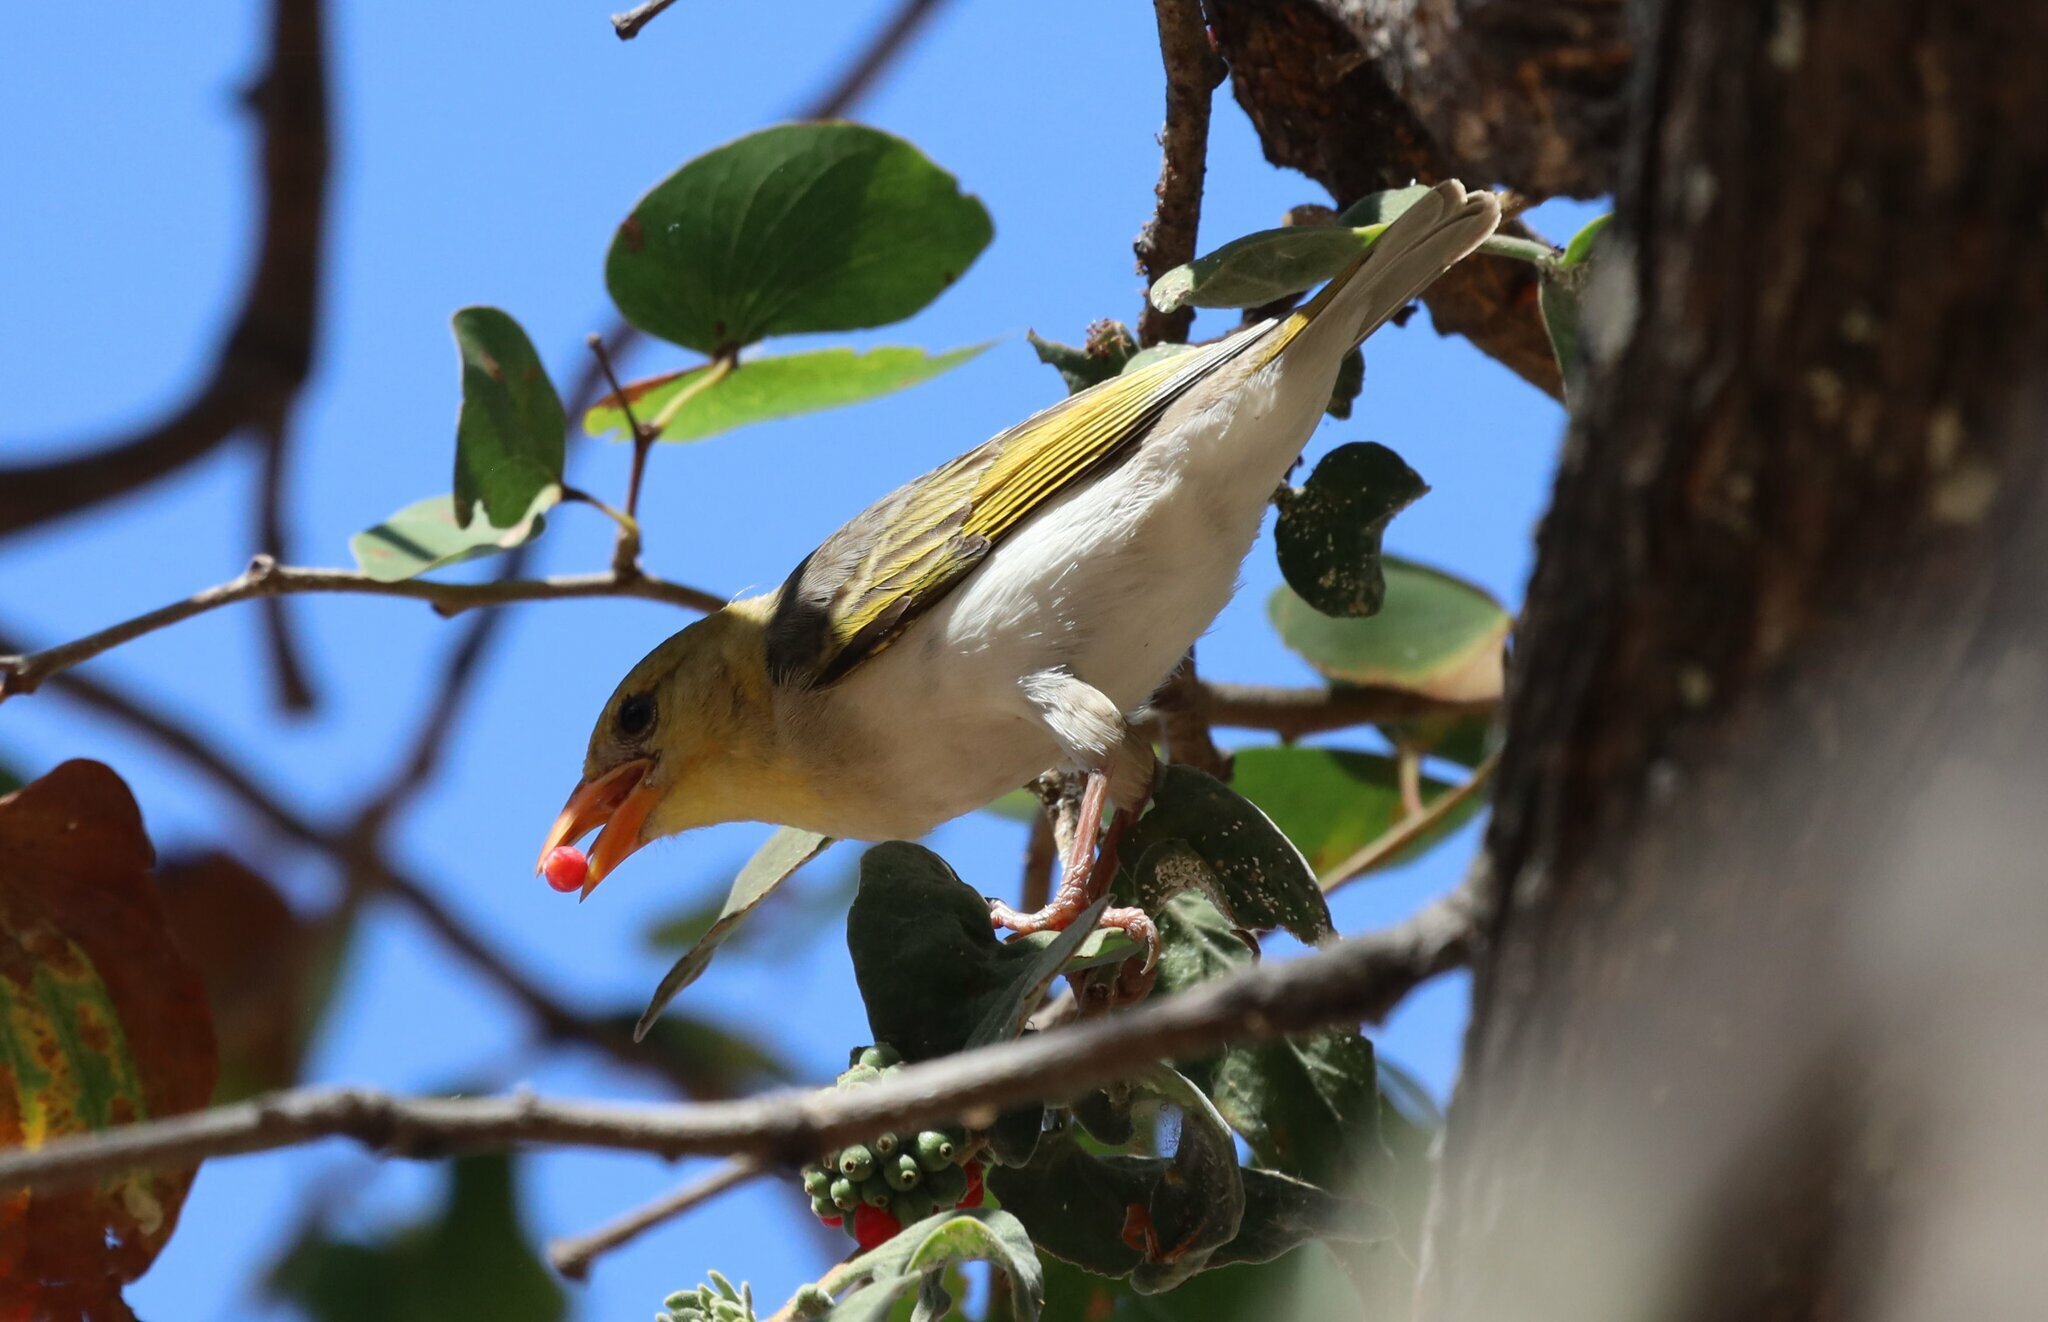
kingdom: Animalia
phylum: Chordata
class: Aves
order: Passeriformes
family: Ploceidae
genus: Anaplectes
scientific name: Anaplectes rubriceps
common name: Red-headed weaver
